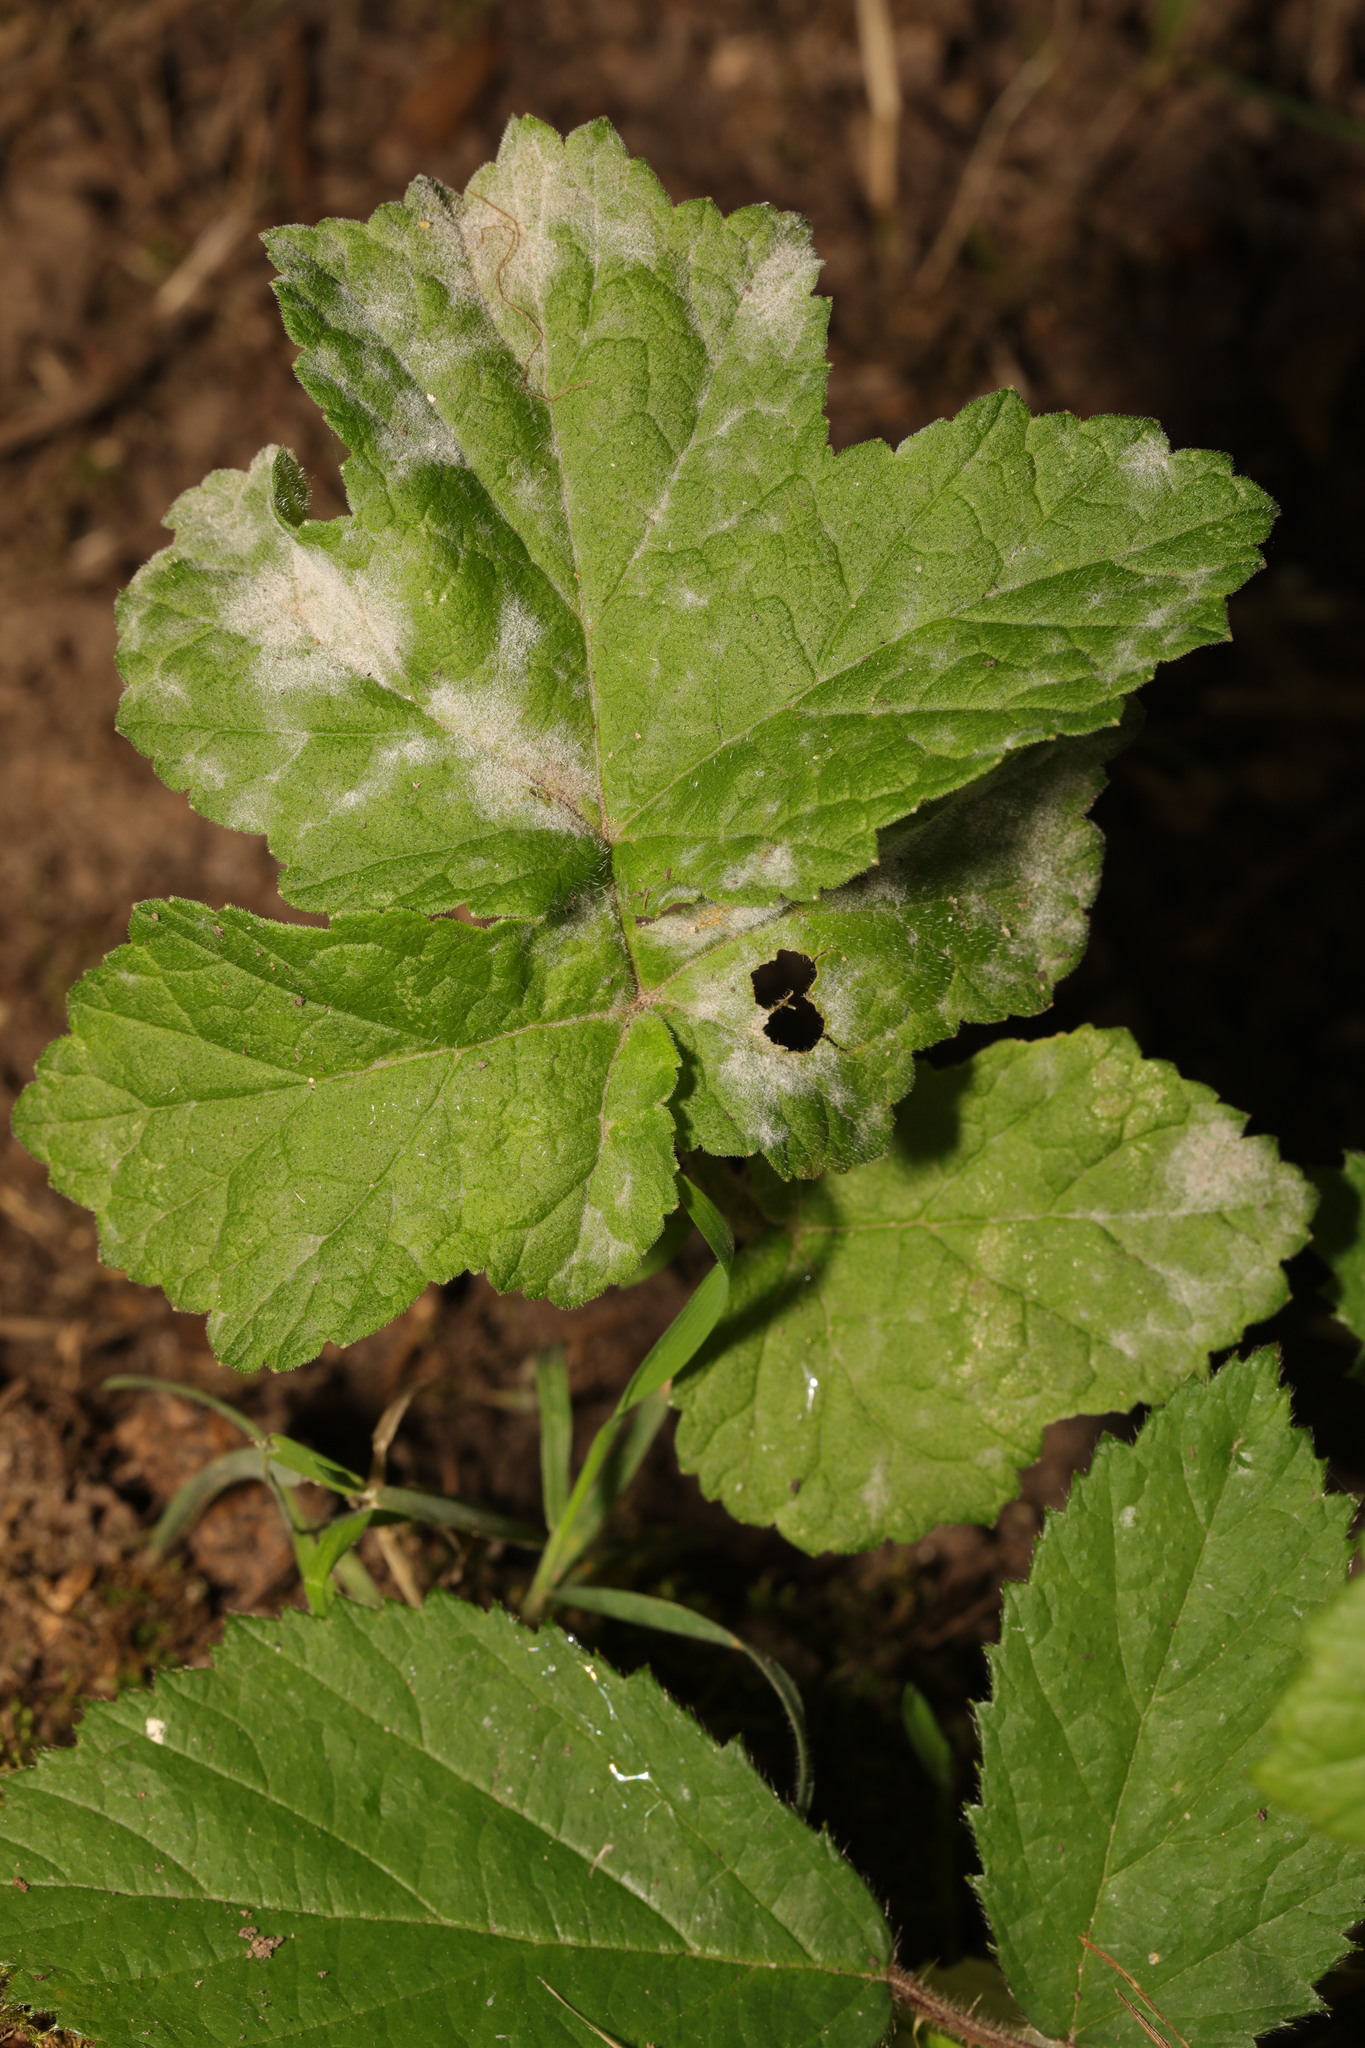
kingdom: Fungi
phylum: Ascomycota
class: Leotiomycetes
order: Helotiales
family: Erysiphaceae
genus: Erysiphe
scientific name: Erysiphe heraclei
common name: Umbellifer mildew
